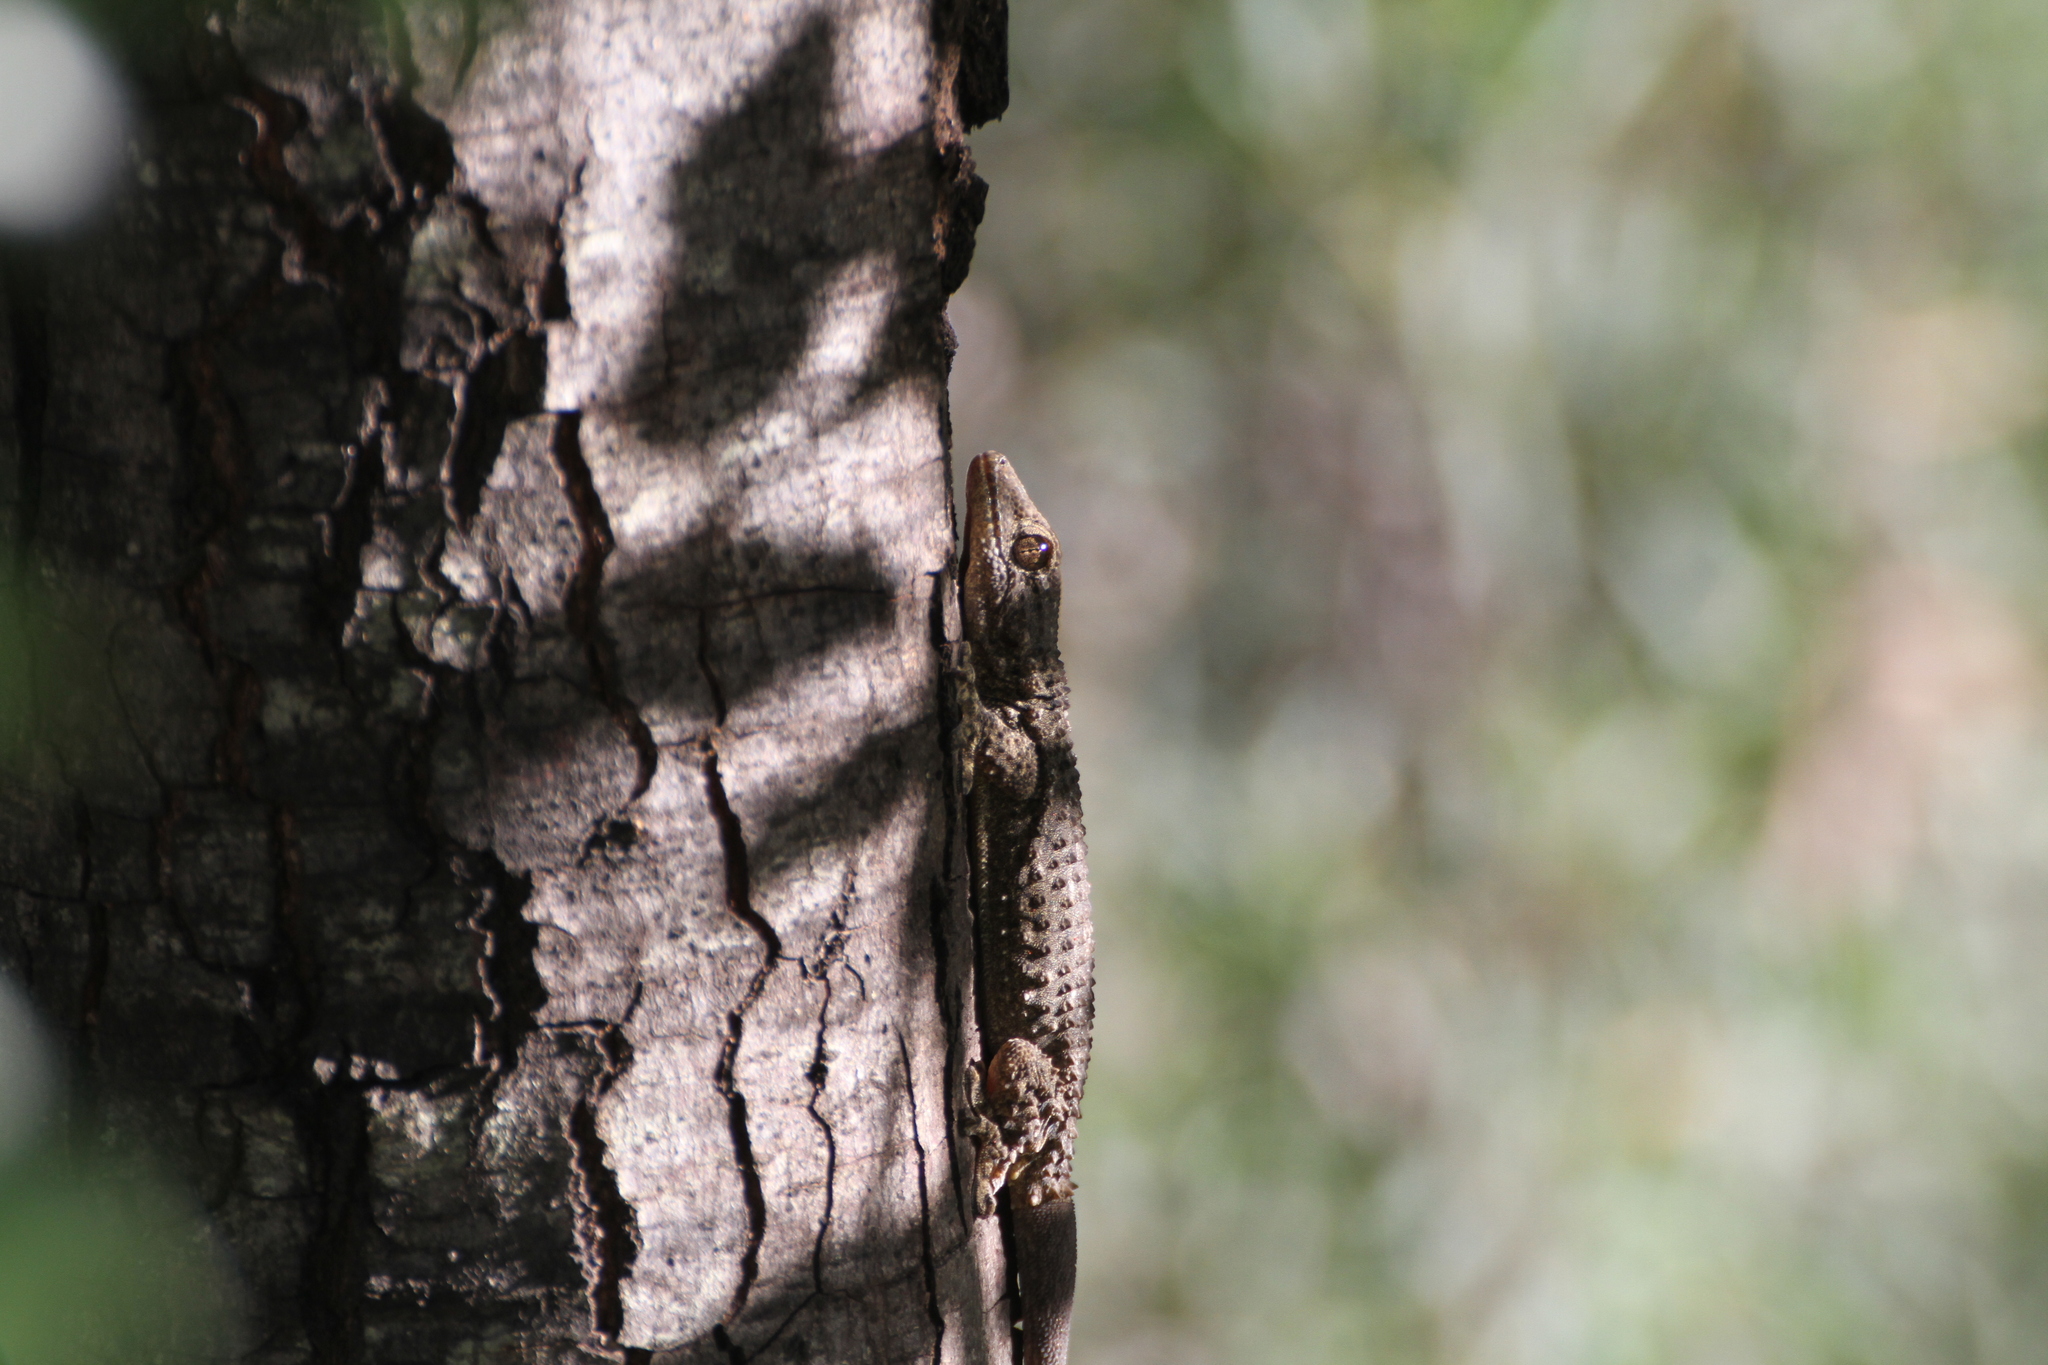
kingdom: Animalia
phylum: Chordata
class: Squamata
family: Phyllodactylidae
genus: Tarentola
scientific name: Tarentola mauritanica
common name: Moorish gecko
